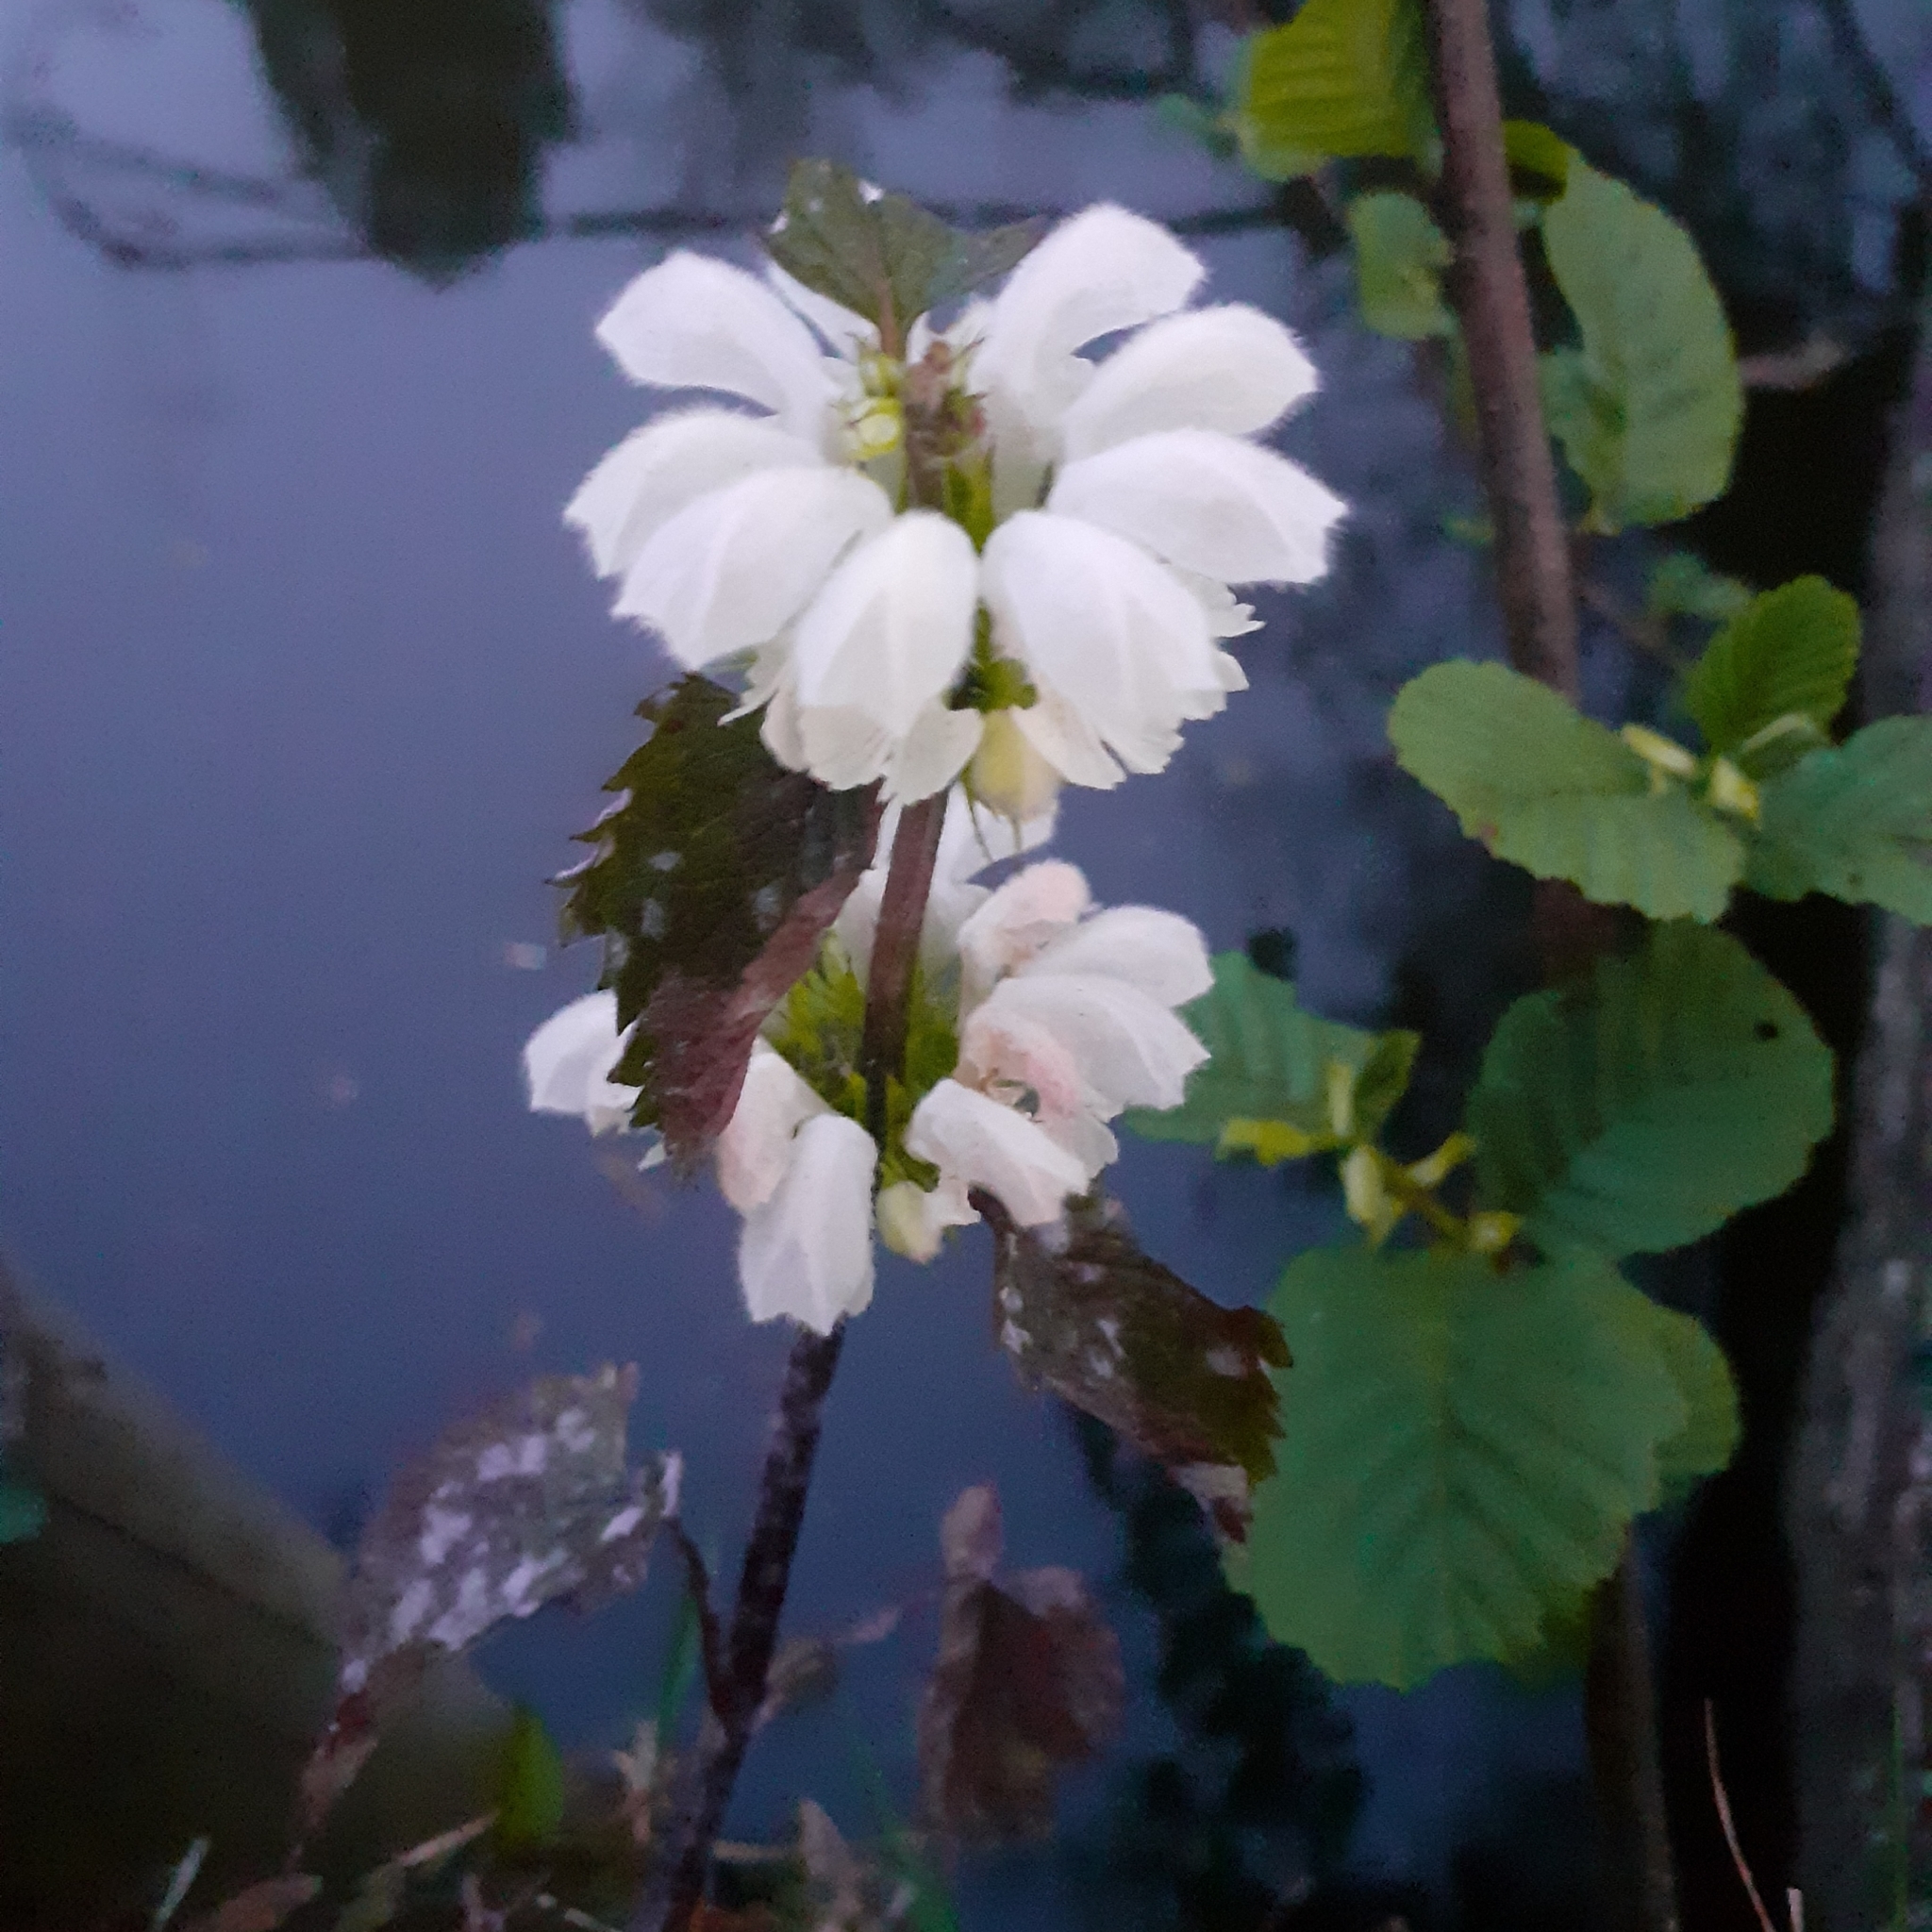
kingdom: Plantae
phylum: Tracheophyta
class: Magnoliopsida
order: Lamiales
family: Lamiaceae
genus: Lamium
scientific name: Lamium album
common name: White dead-nettle
